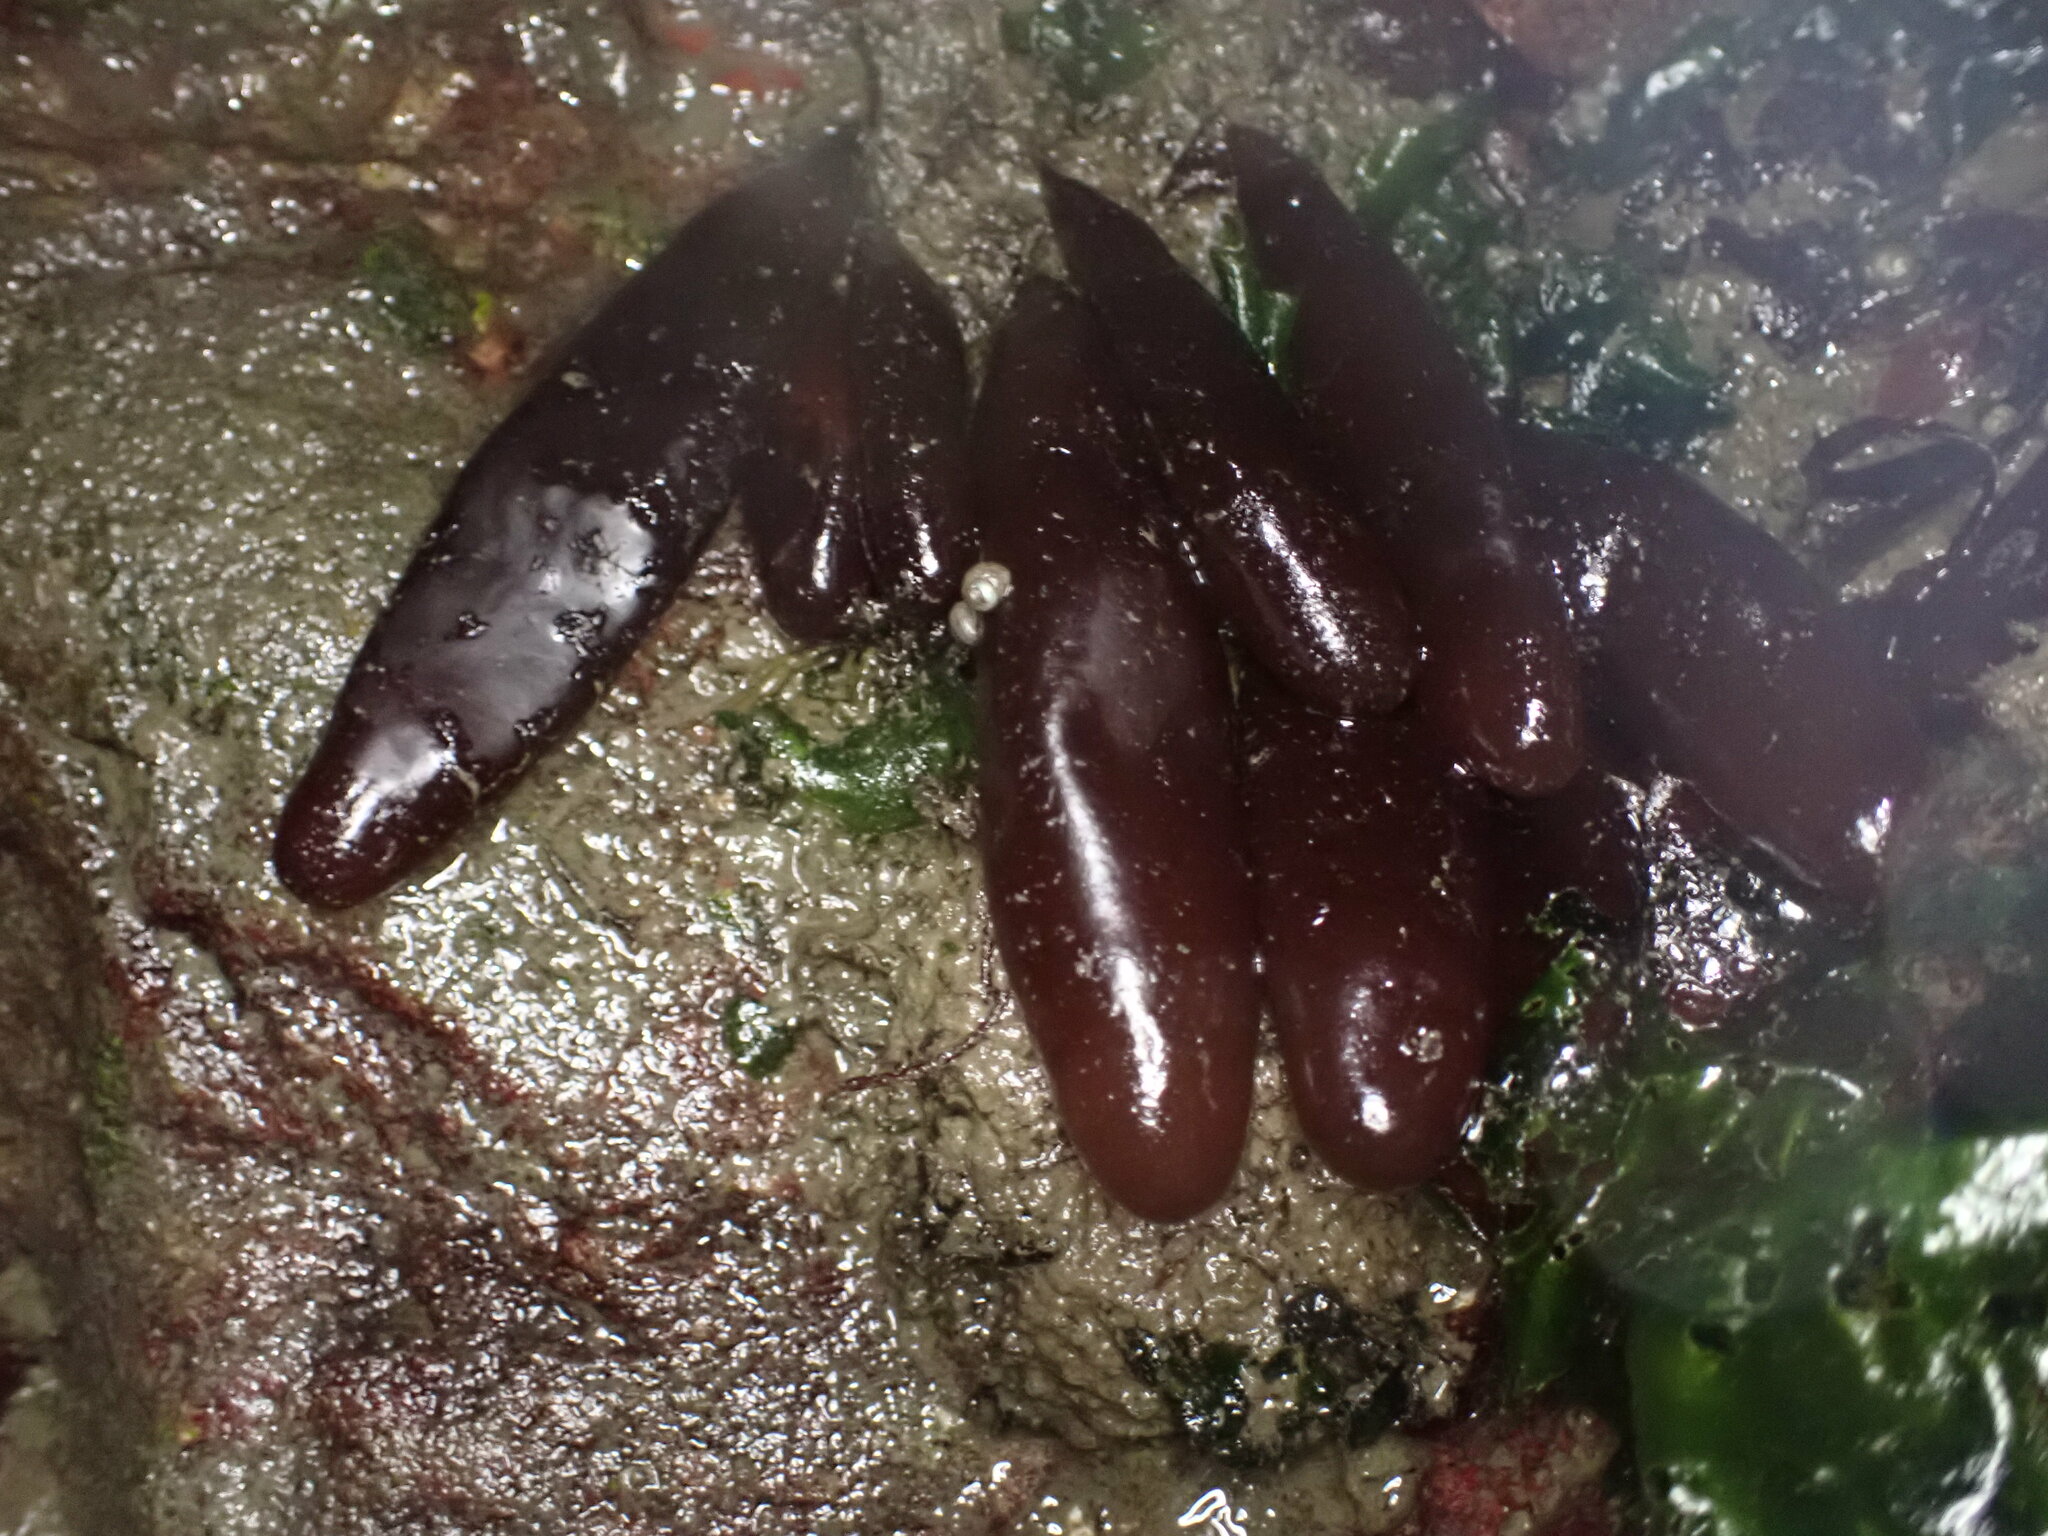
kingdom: Plantae
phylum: Rhodophyta
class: Florideophyceae
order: Palmariales
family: Palmariaceae
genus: Halosaccion
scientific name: Halosaccion glandiforme
